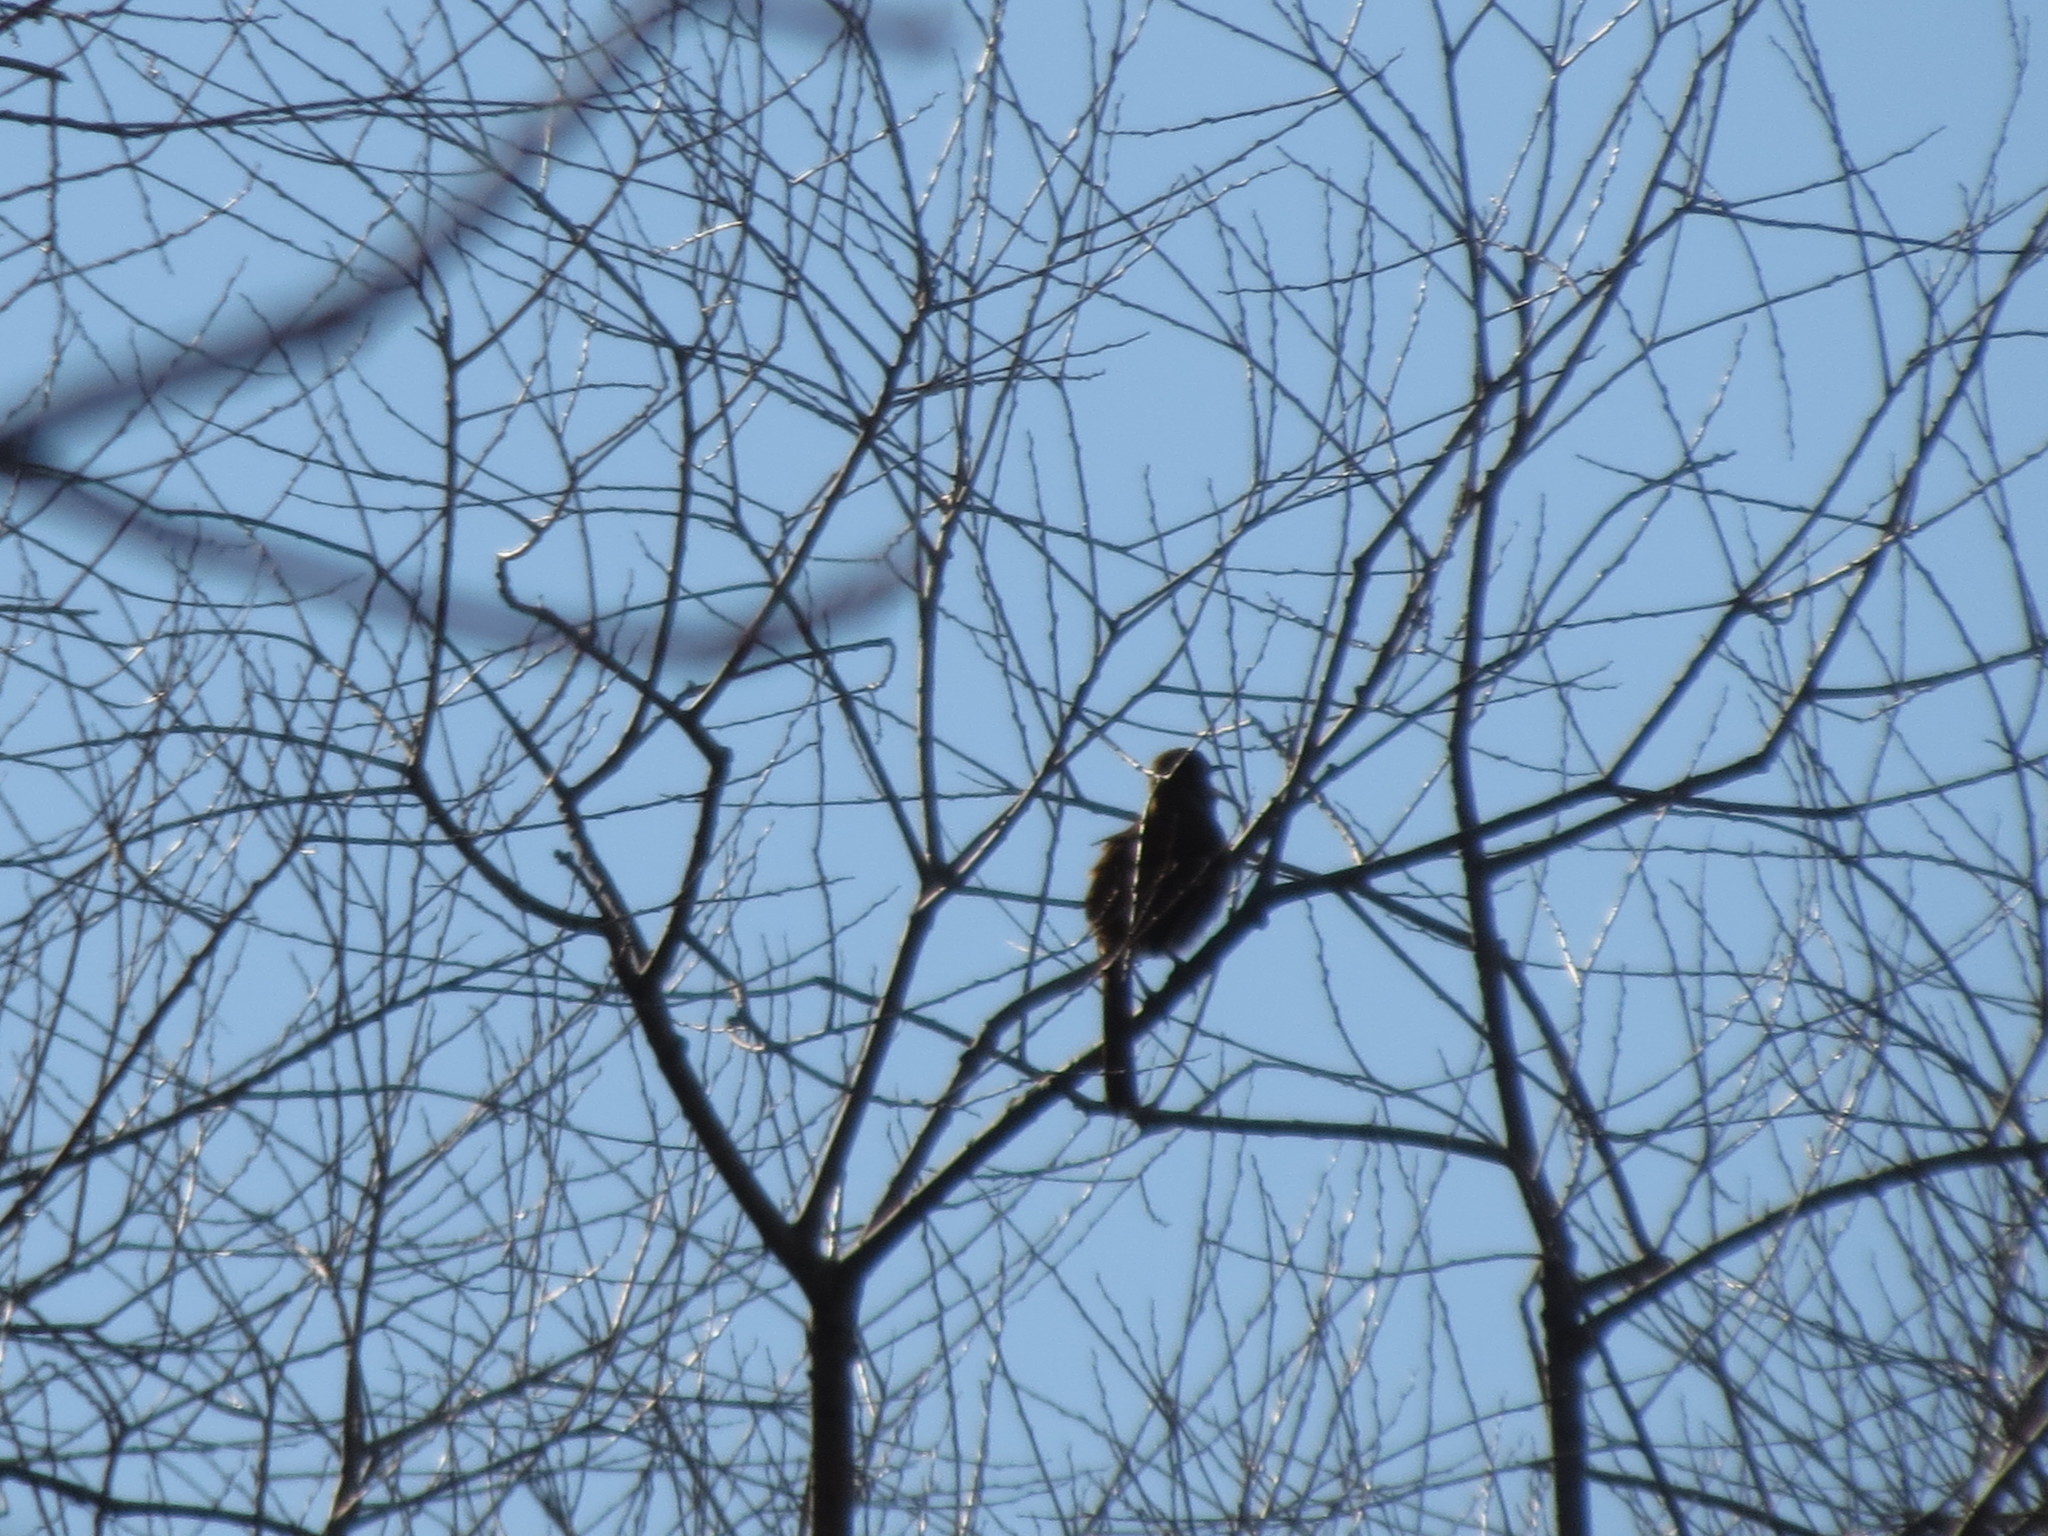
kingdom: Animalia
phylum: Chordata
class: Aves
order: Passeriformes
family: Mimidae
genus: Toxostoma
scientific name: Toxostoma rufum
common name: Brown thrasher
